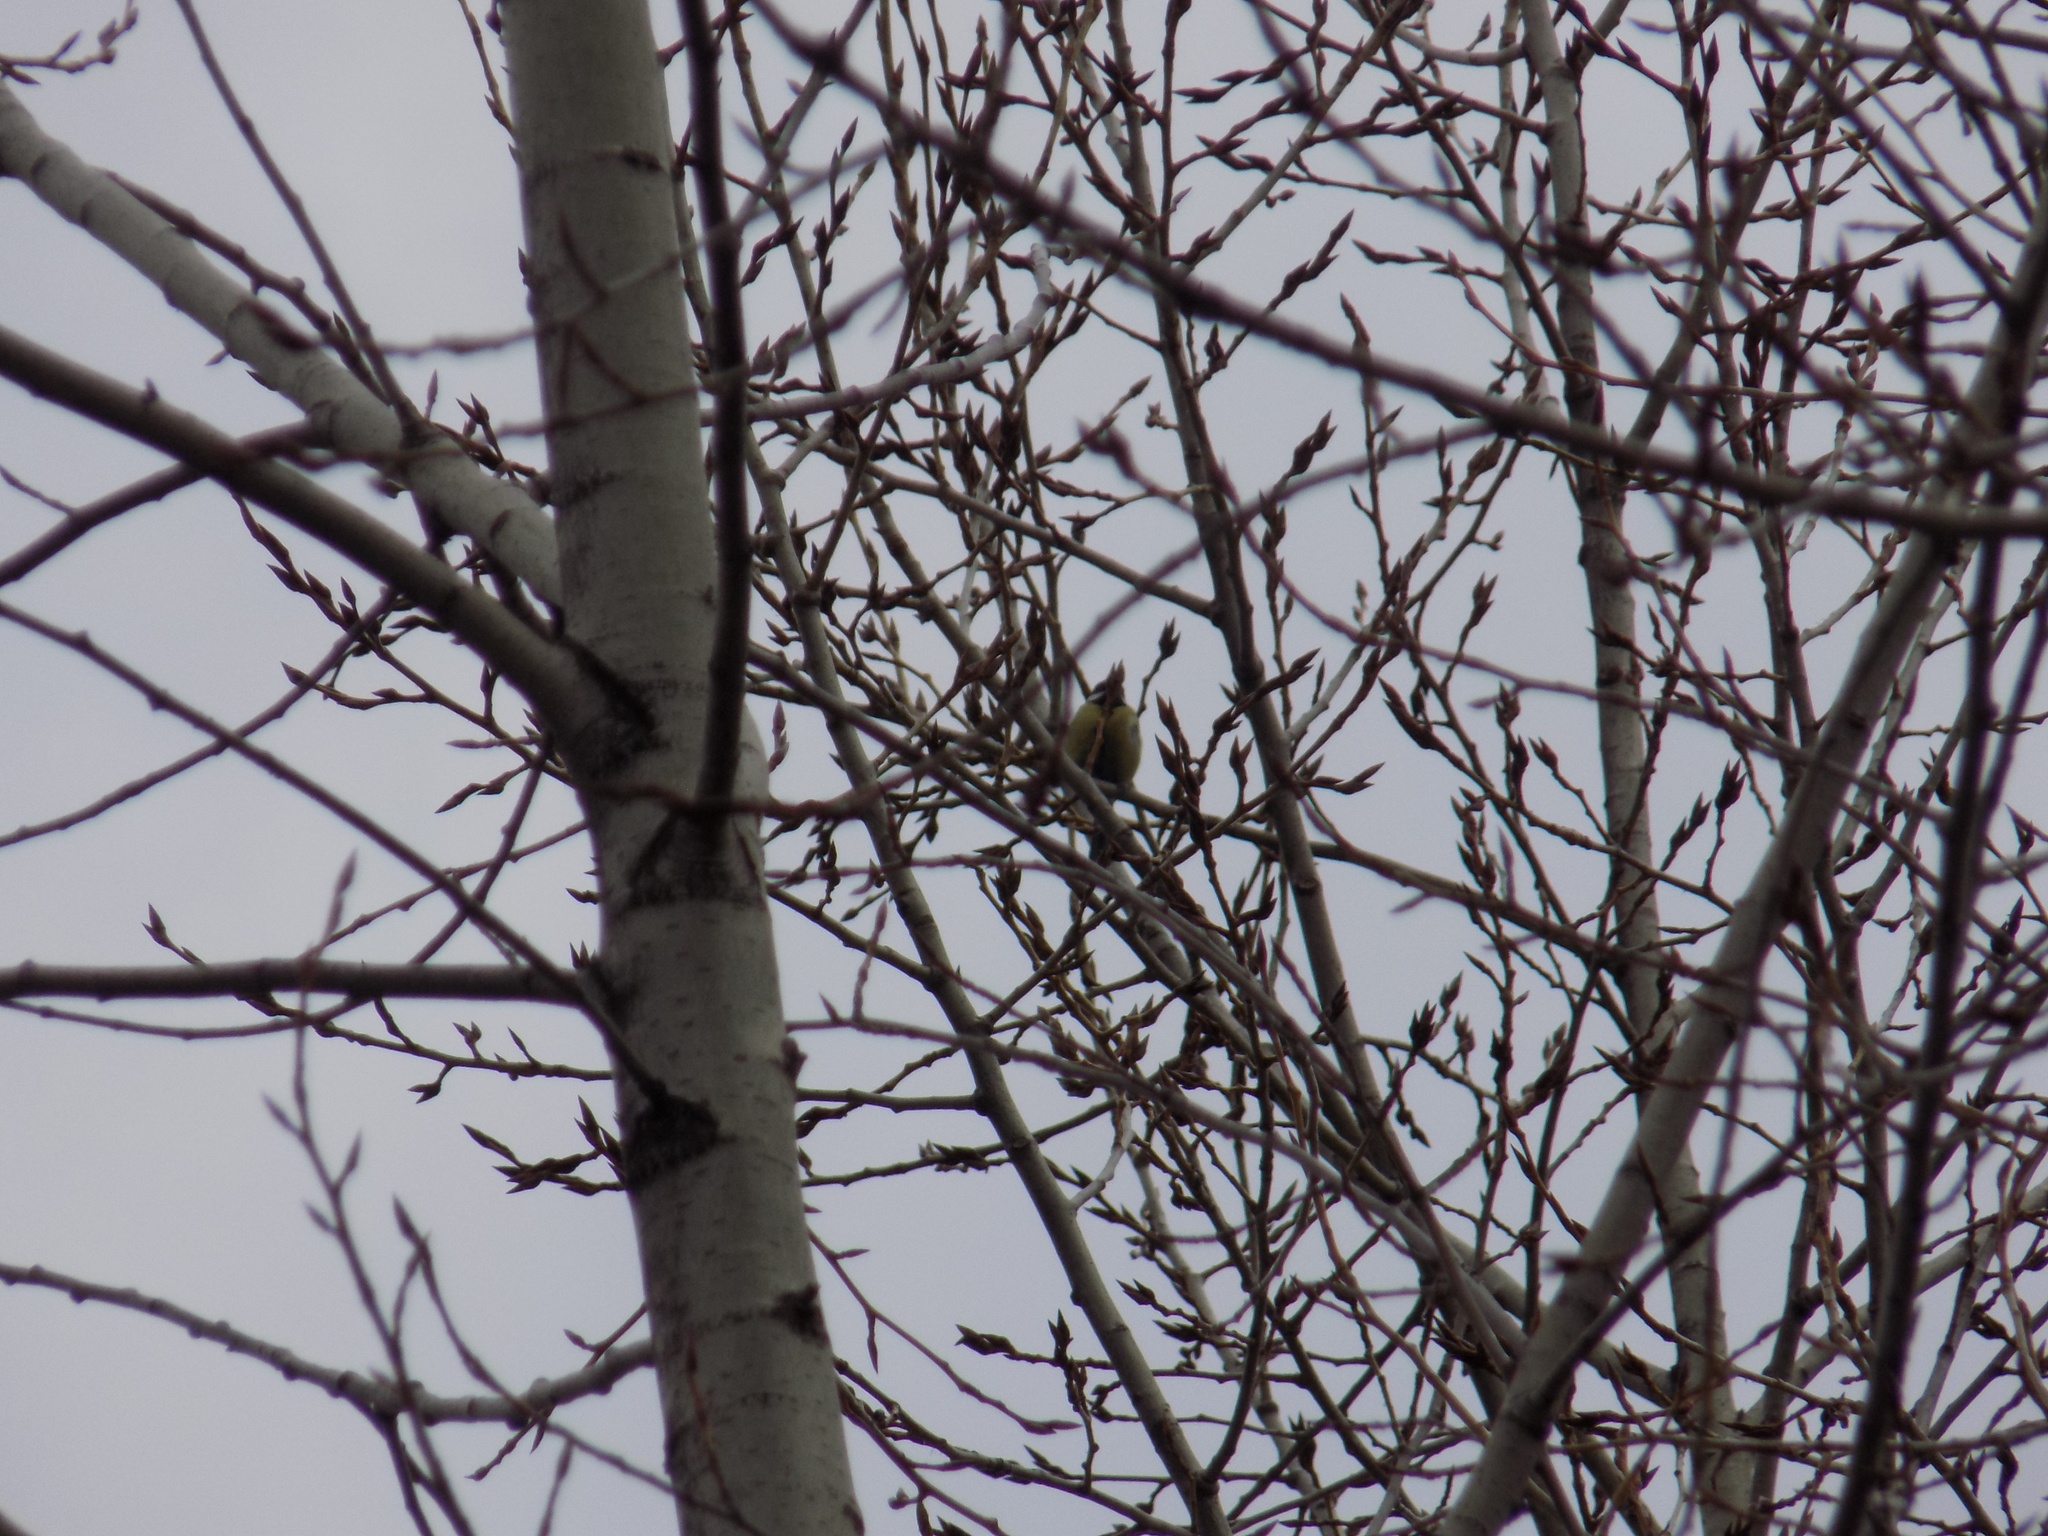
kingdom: Animalia
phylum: Chordata
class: Aves
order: Passeriformes
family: Paridae
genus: Parus
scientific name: Parus major
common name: Great tit
